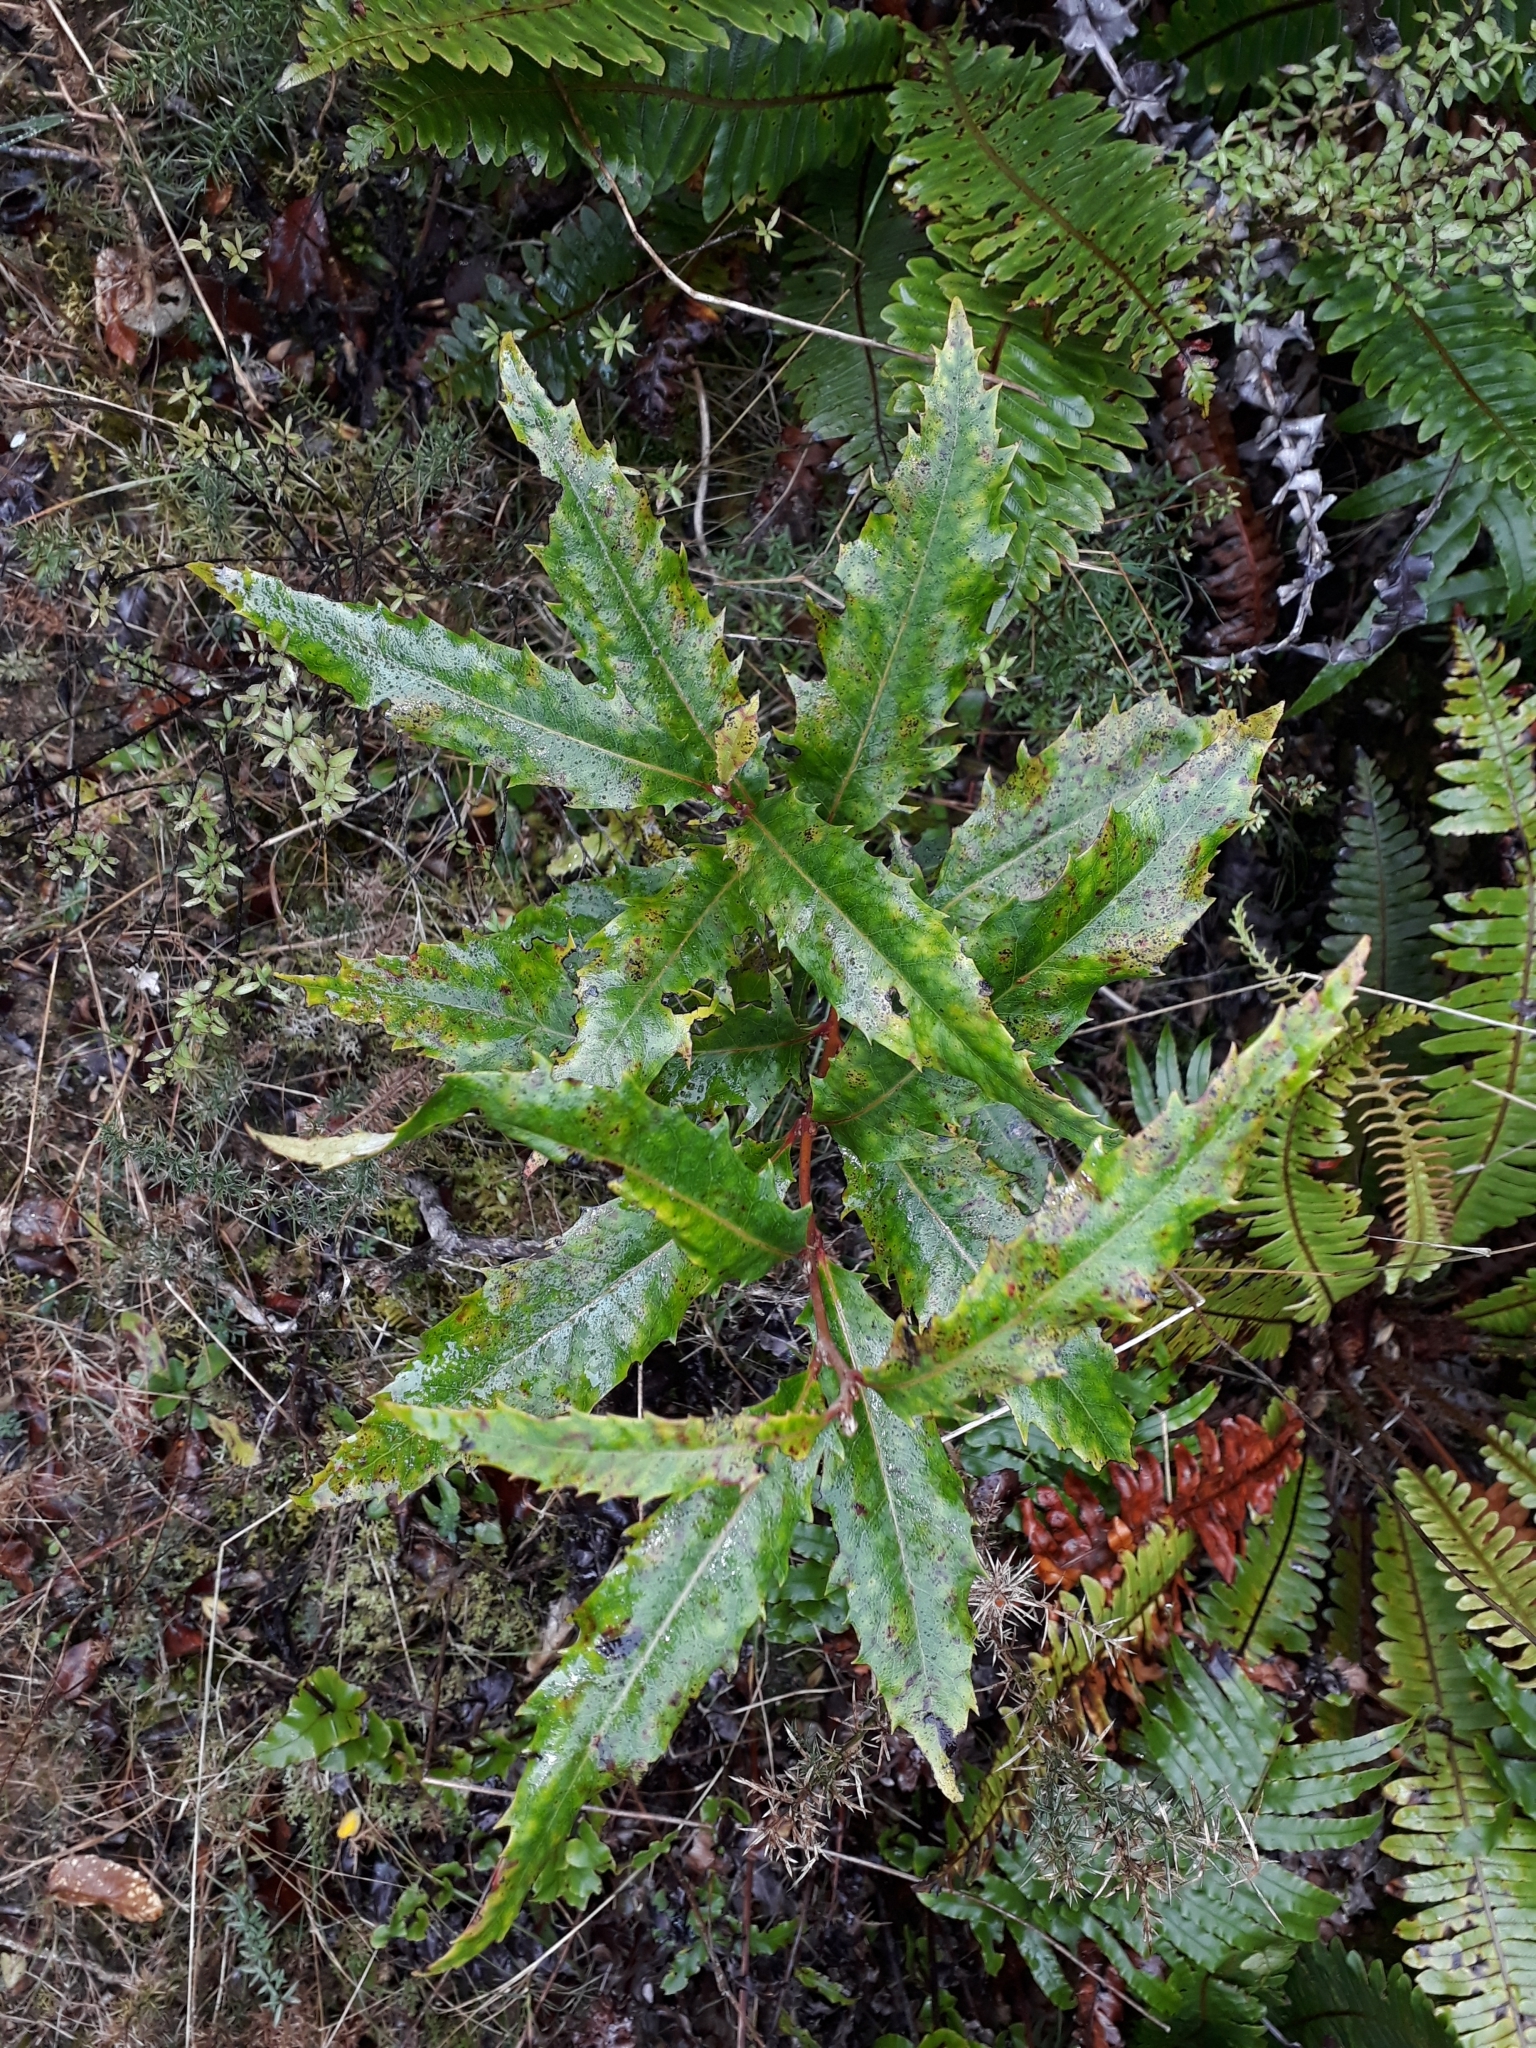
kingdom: Plantae
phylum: Tracheophyta
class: Magnoliopsida
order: Proteales
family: Proteaceae
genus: Lomatia
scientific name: Lomatia fraseri
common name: Forest lomatia
